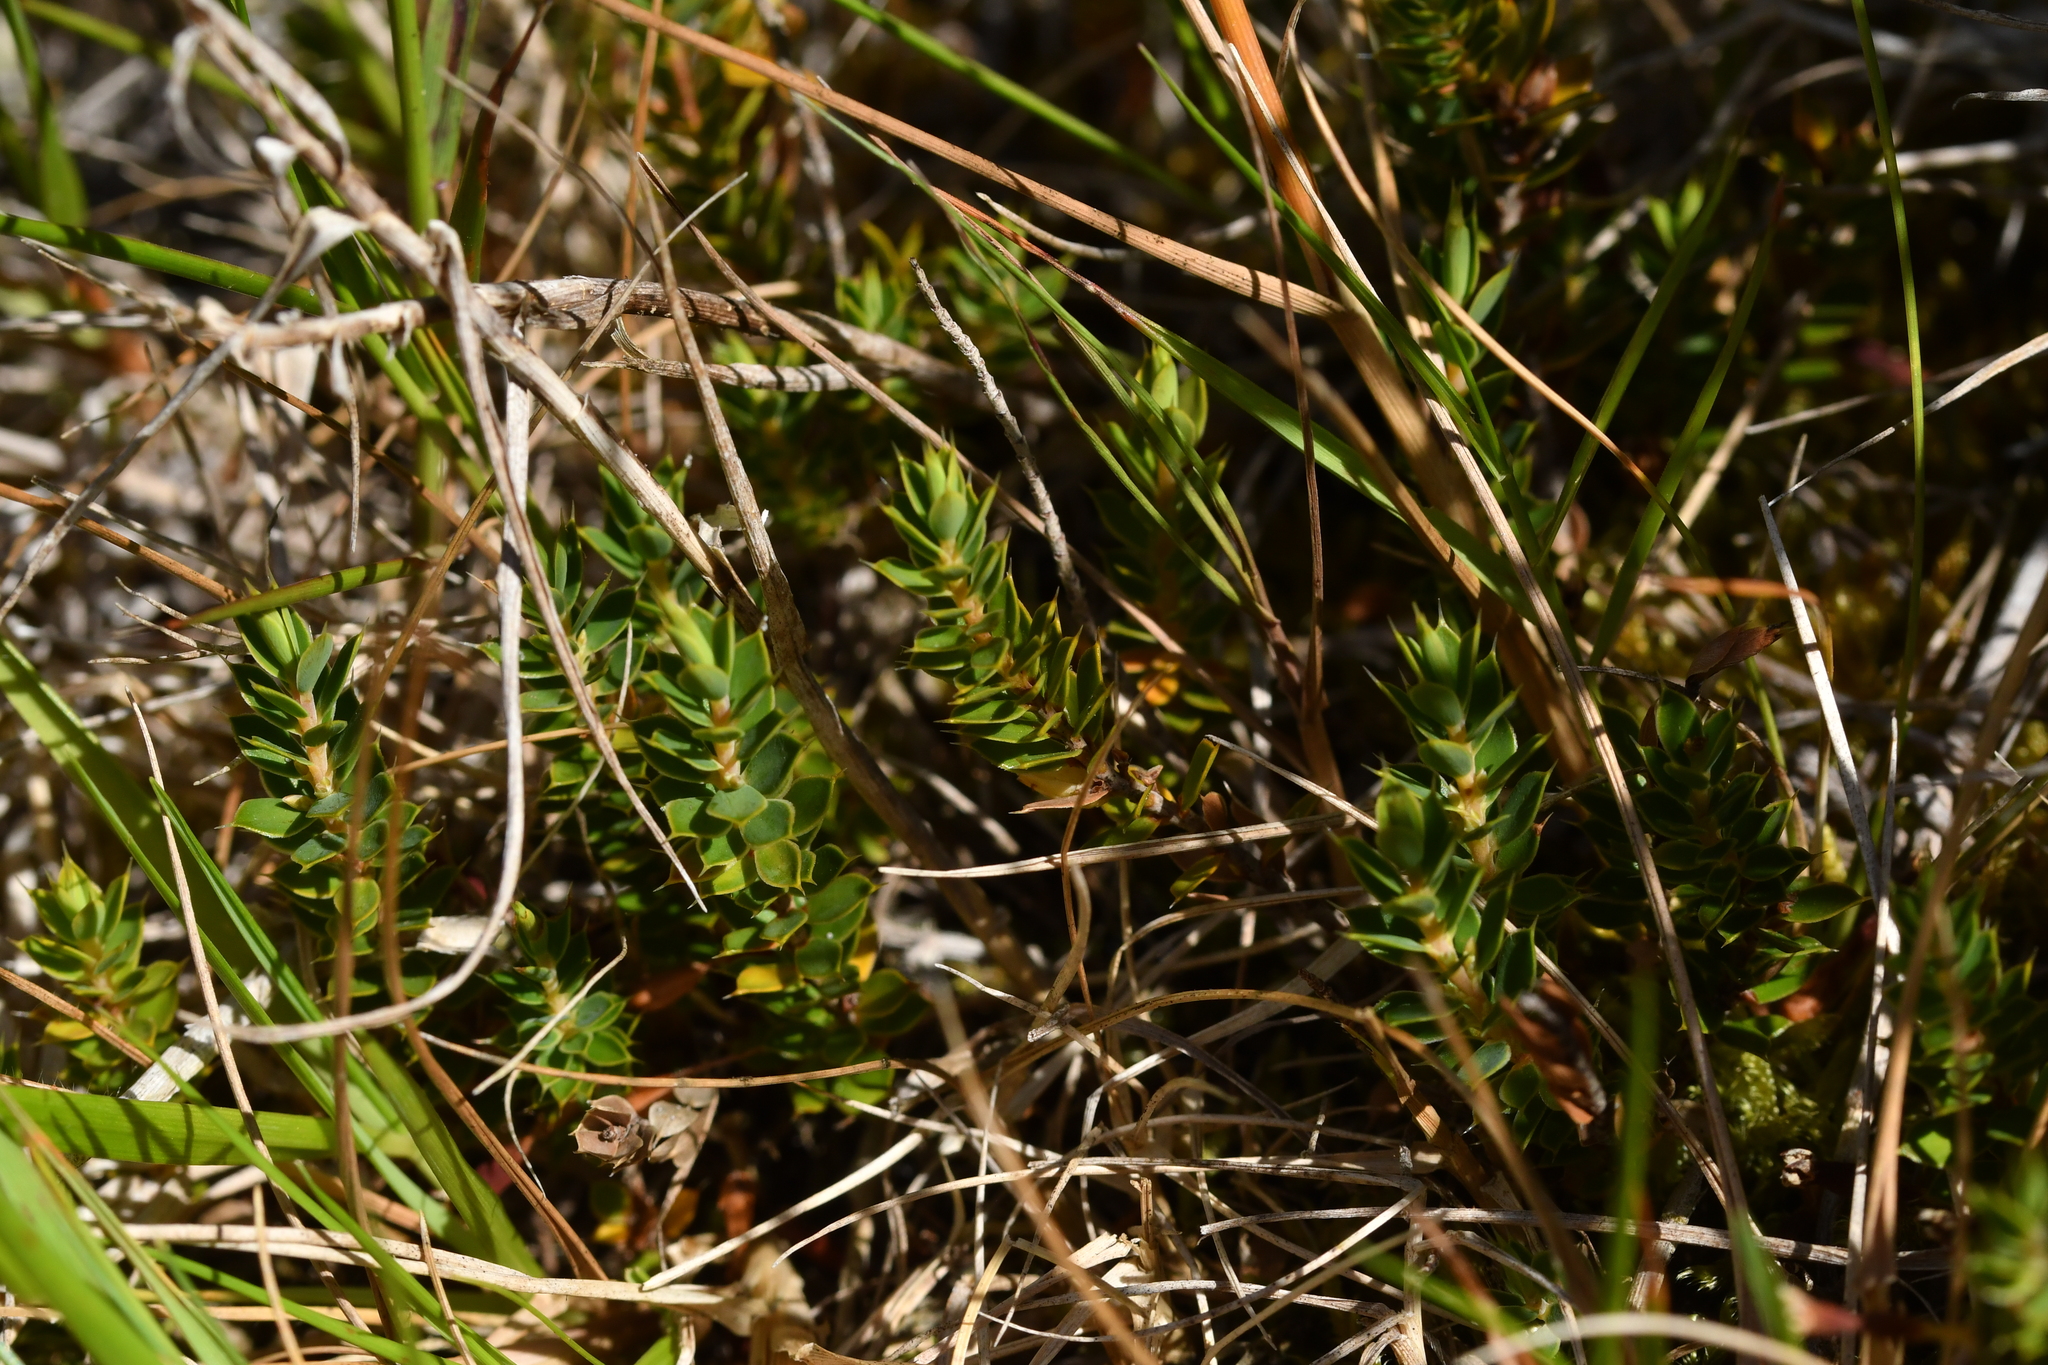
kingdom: Plantae
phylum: Tracheophyta
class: Magnoliopsida
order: Ericales
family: Ericaceae
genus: Styphelia
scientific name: Styphelia nesophila
